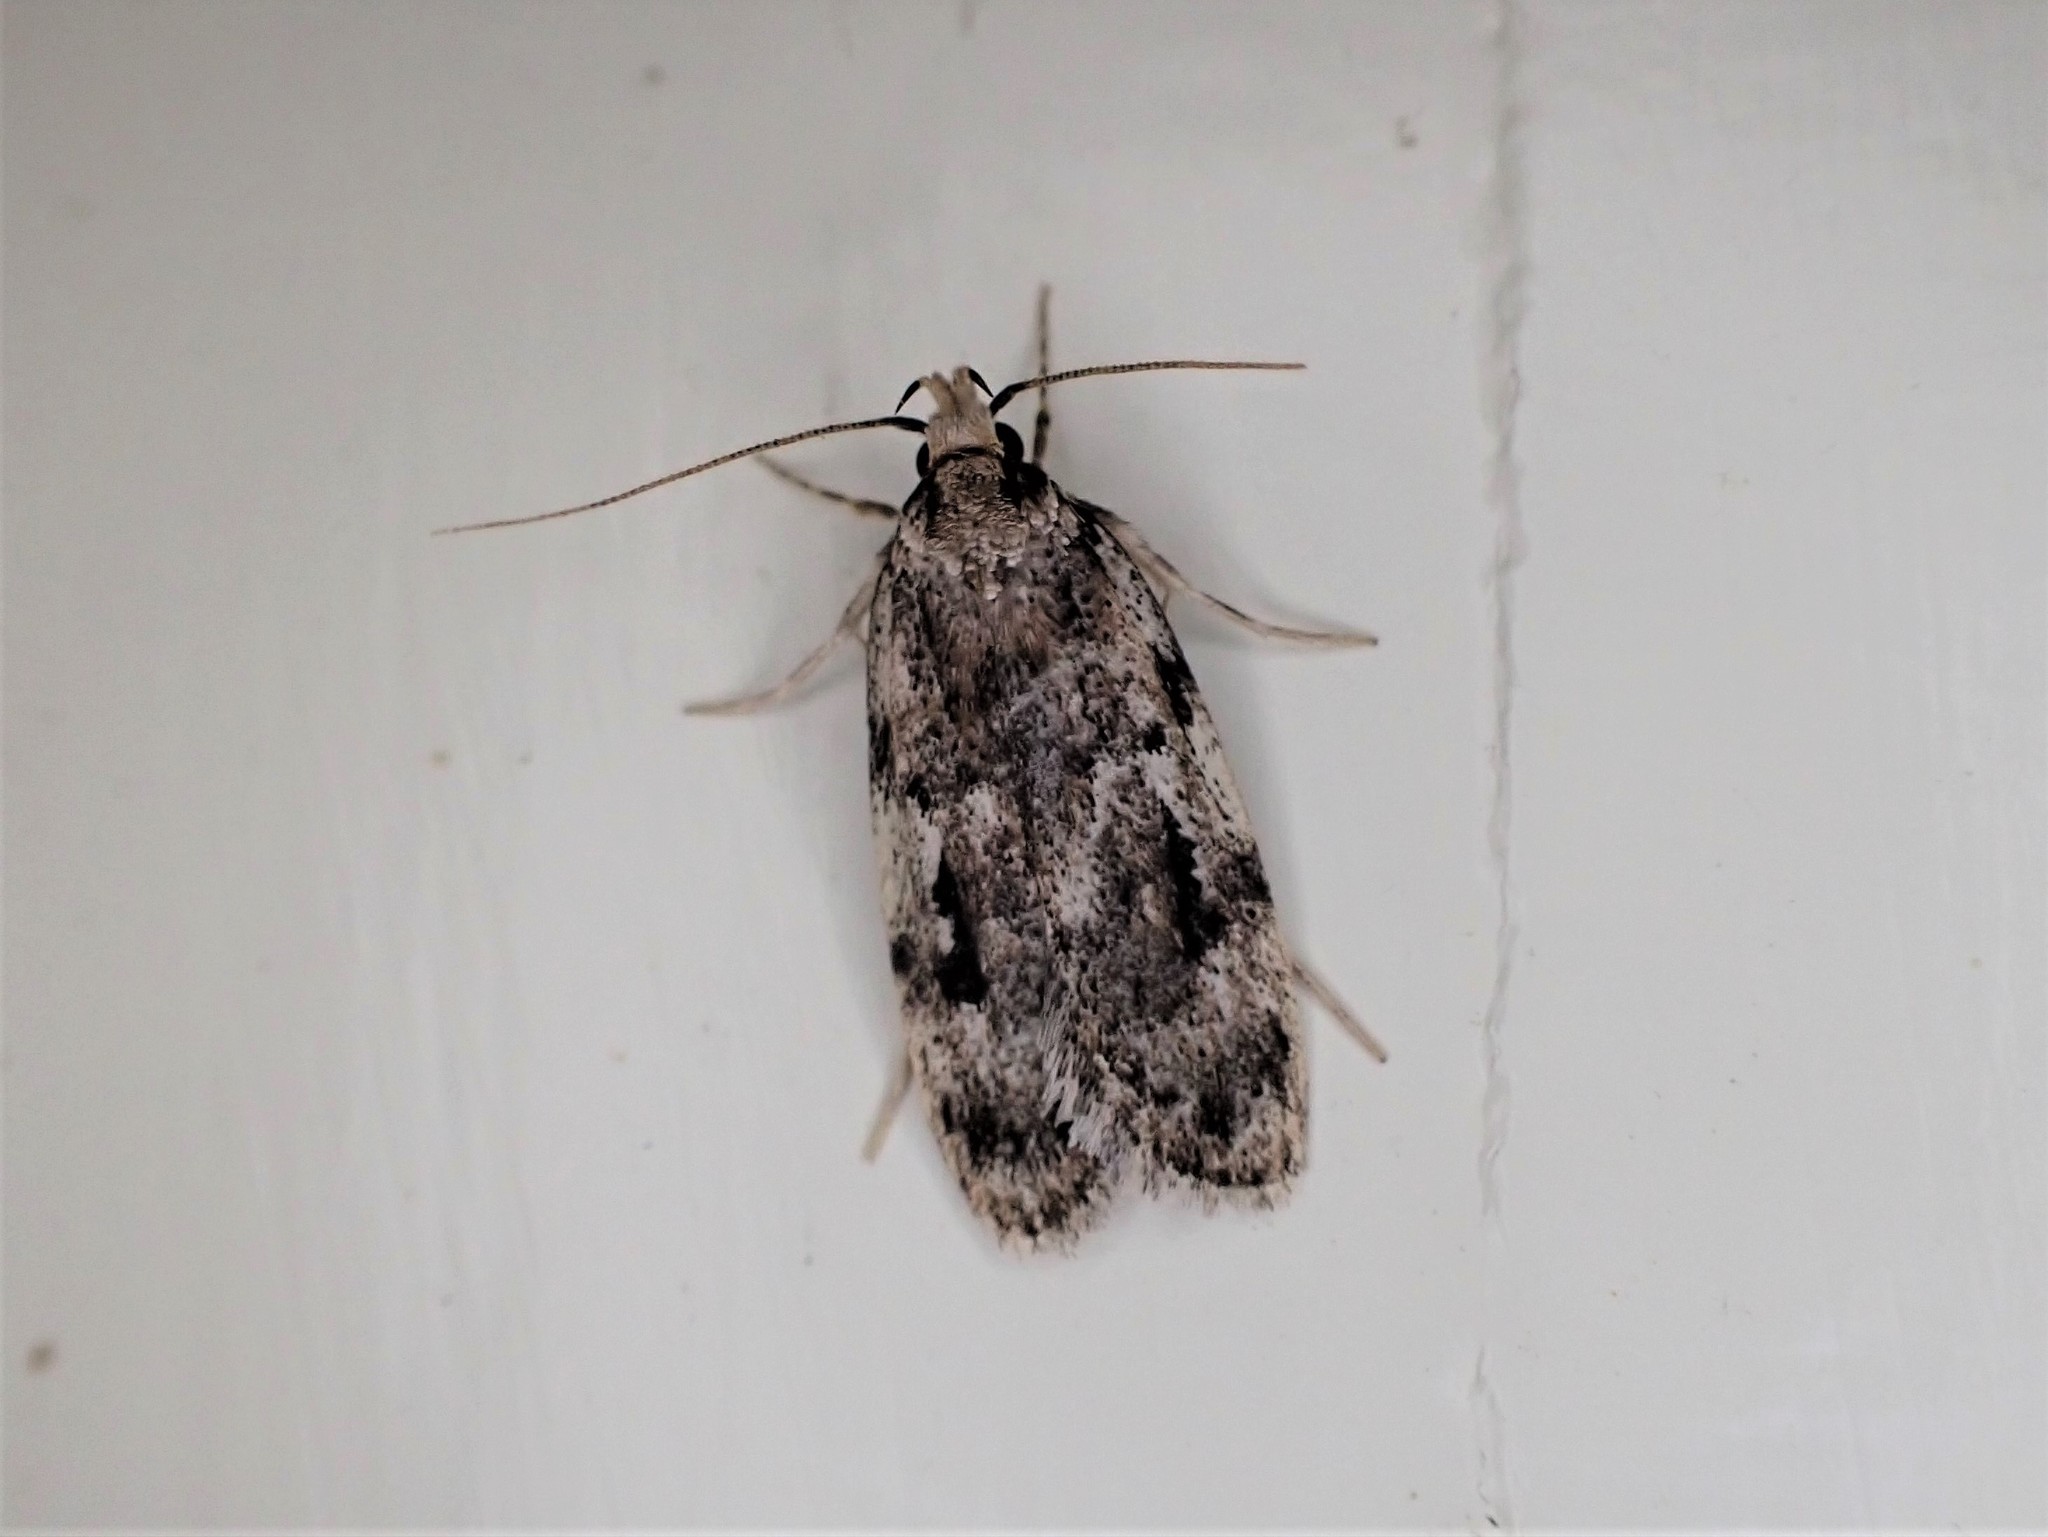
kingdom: Animalia
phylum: Arthropoda
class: Insecta
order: Lepidoptera
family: Oecophoridae
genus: Barea
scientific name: Barea exarcha
